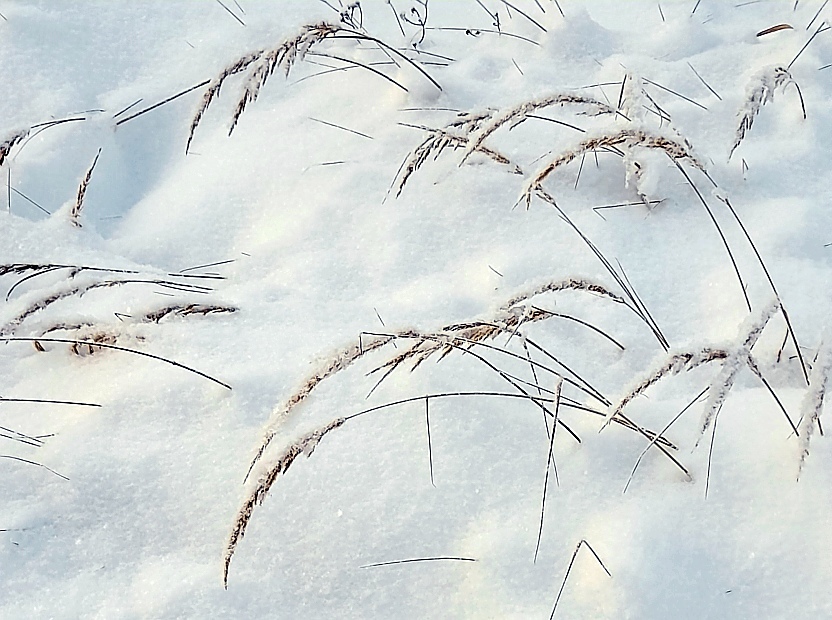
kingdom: Plantae
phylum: Tracheophyta
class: Liliopsida
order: Poales
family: Poaceae
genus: Calamagrostis
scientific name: Calamagrostis epigejos
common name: Wood small-reed
